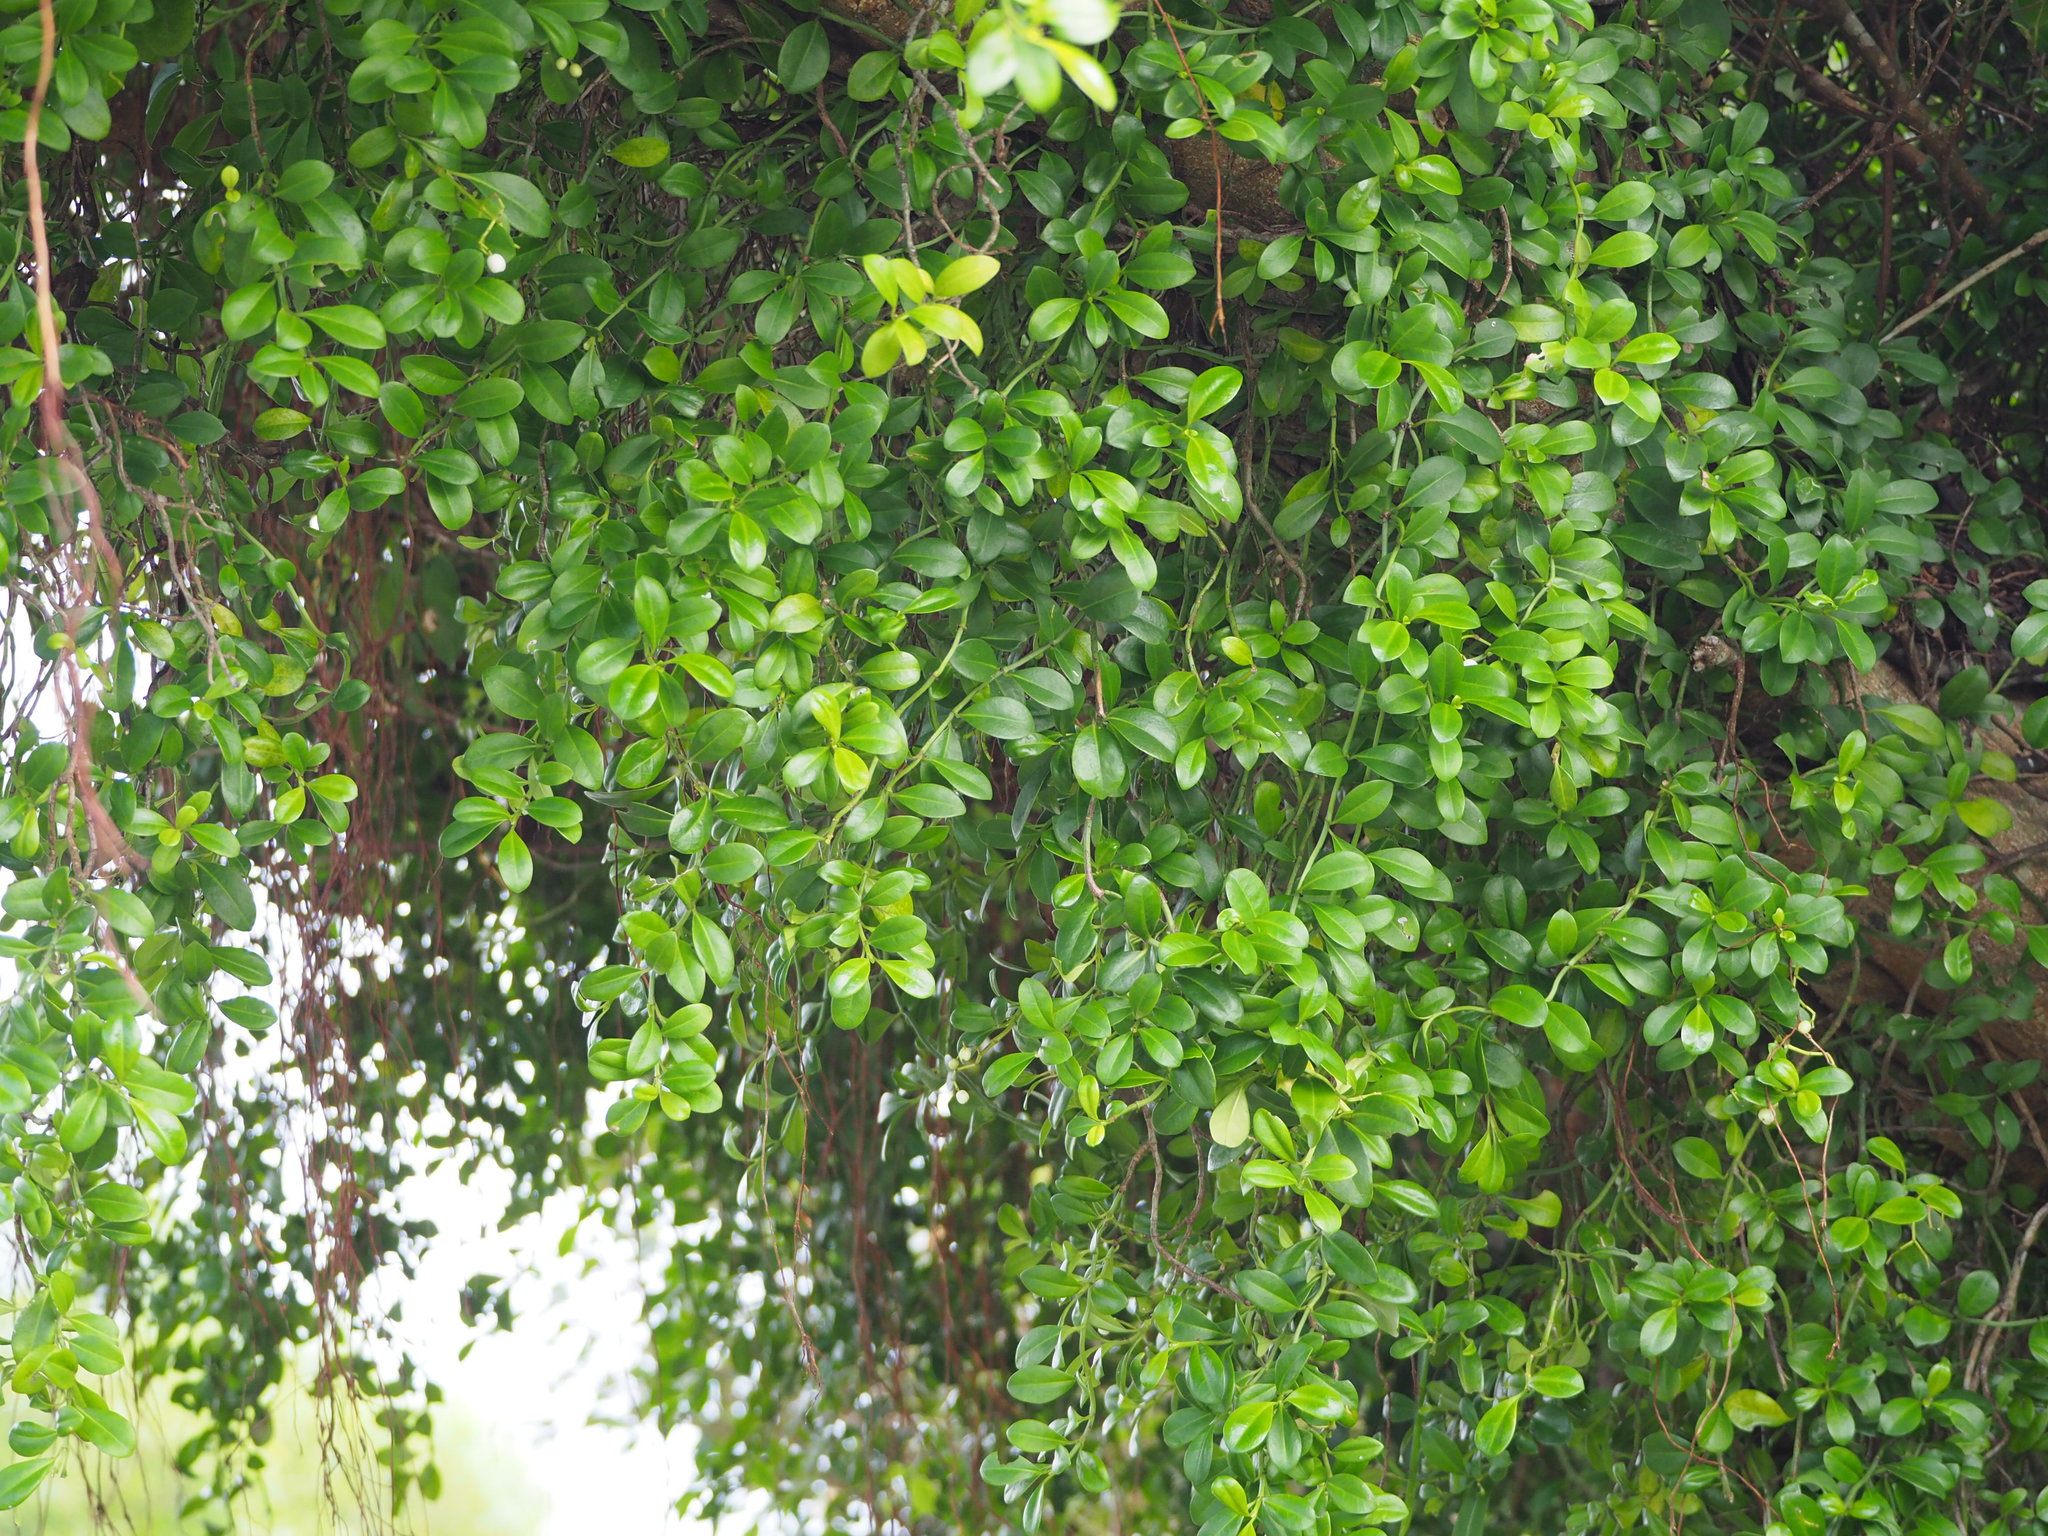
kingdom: Plantae
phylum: Tracheophyta
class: Magnoliopsida
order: Gentianales
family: Rubiaceae
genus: Psychotria
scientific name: Psychotria serpens
